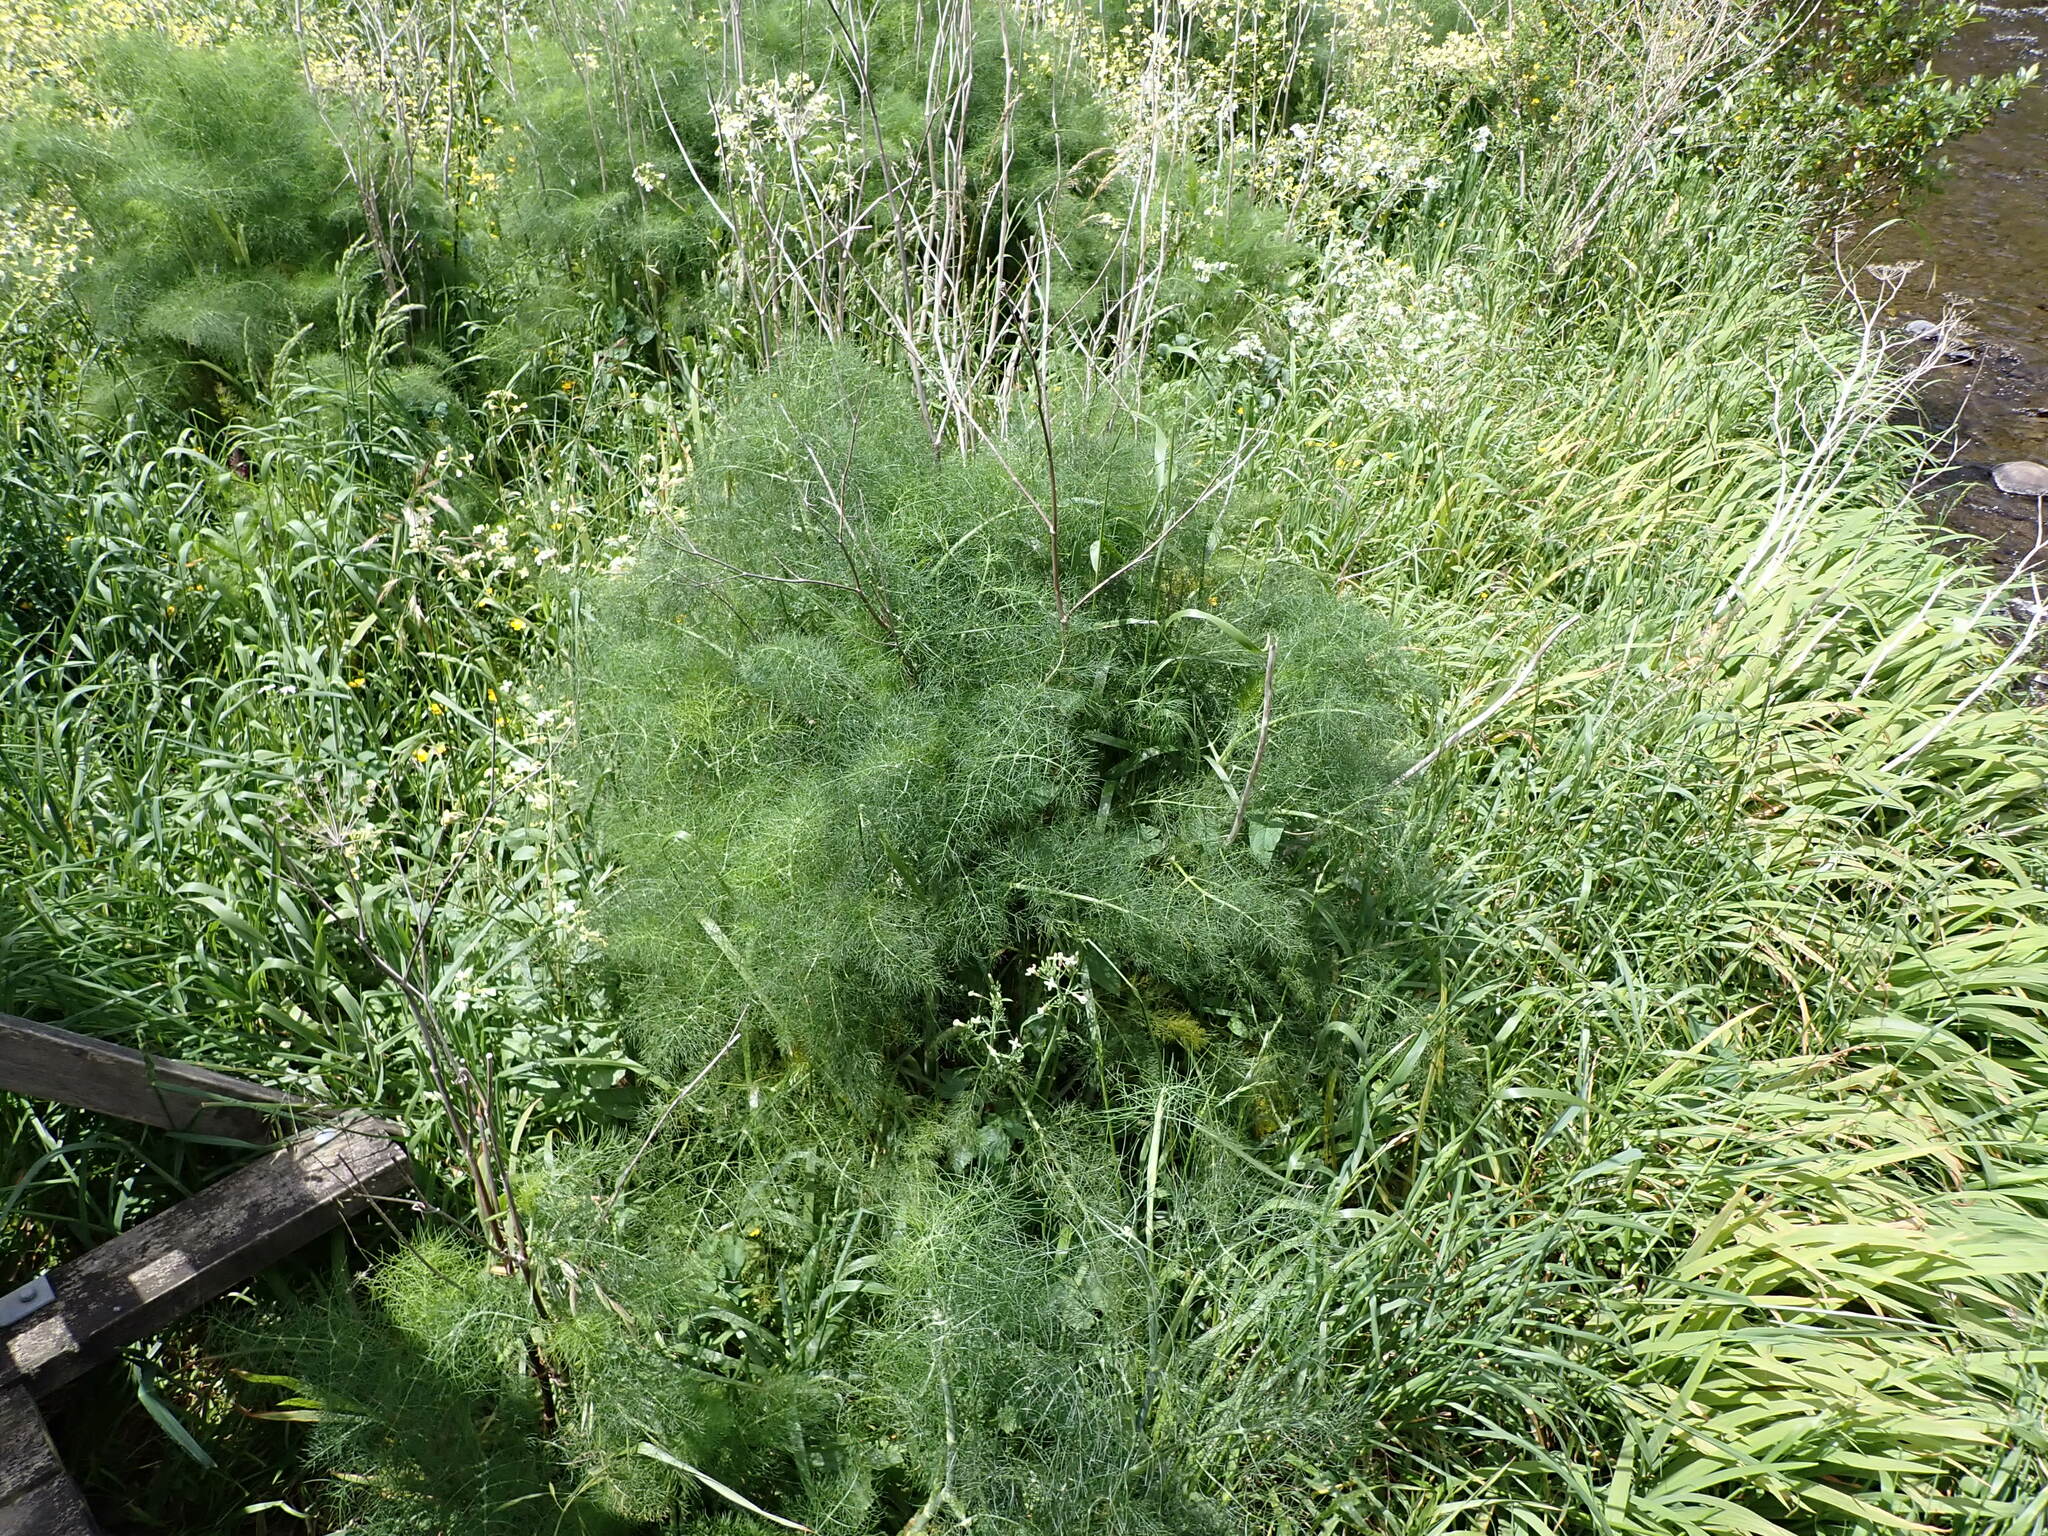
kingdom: Plantae
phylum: Tracheophyta
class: Magnoliopsida
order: Apiales
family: Apiaceae
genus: Foeniculum
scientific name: Foeniculum vulgare
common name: Fennel
